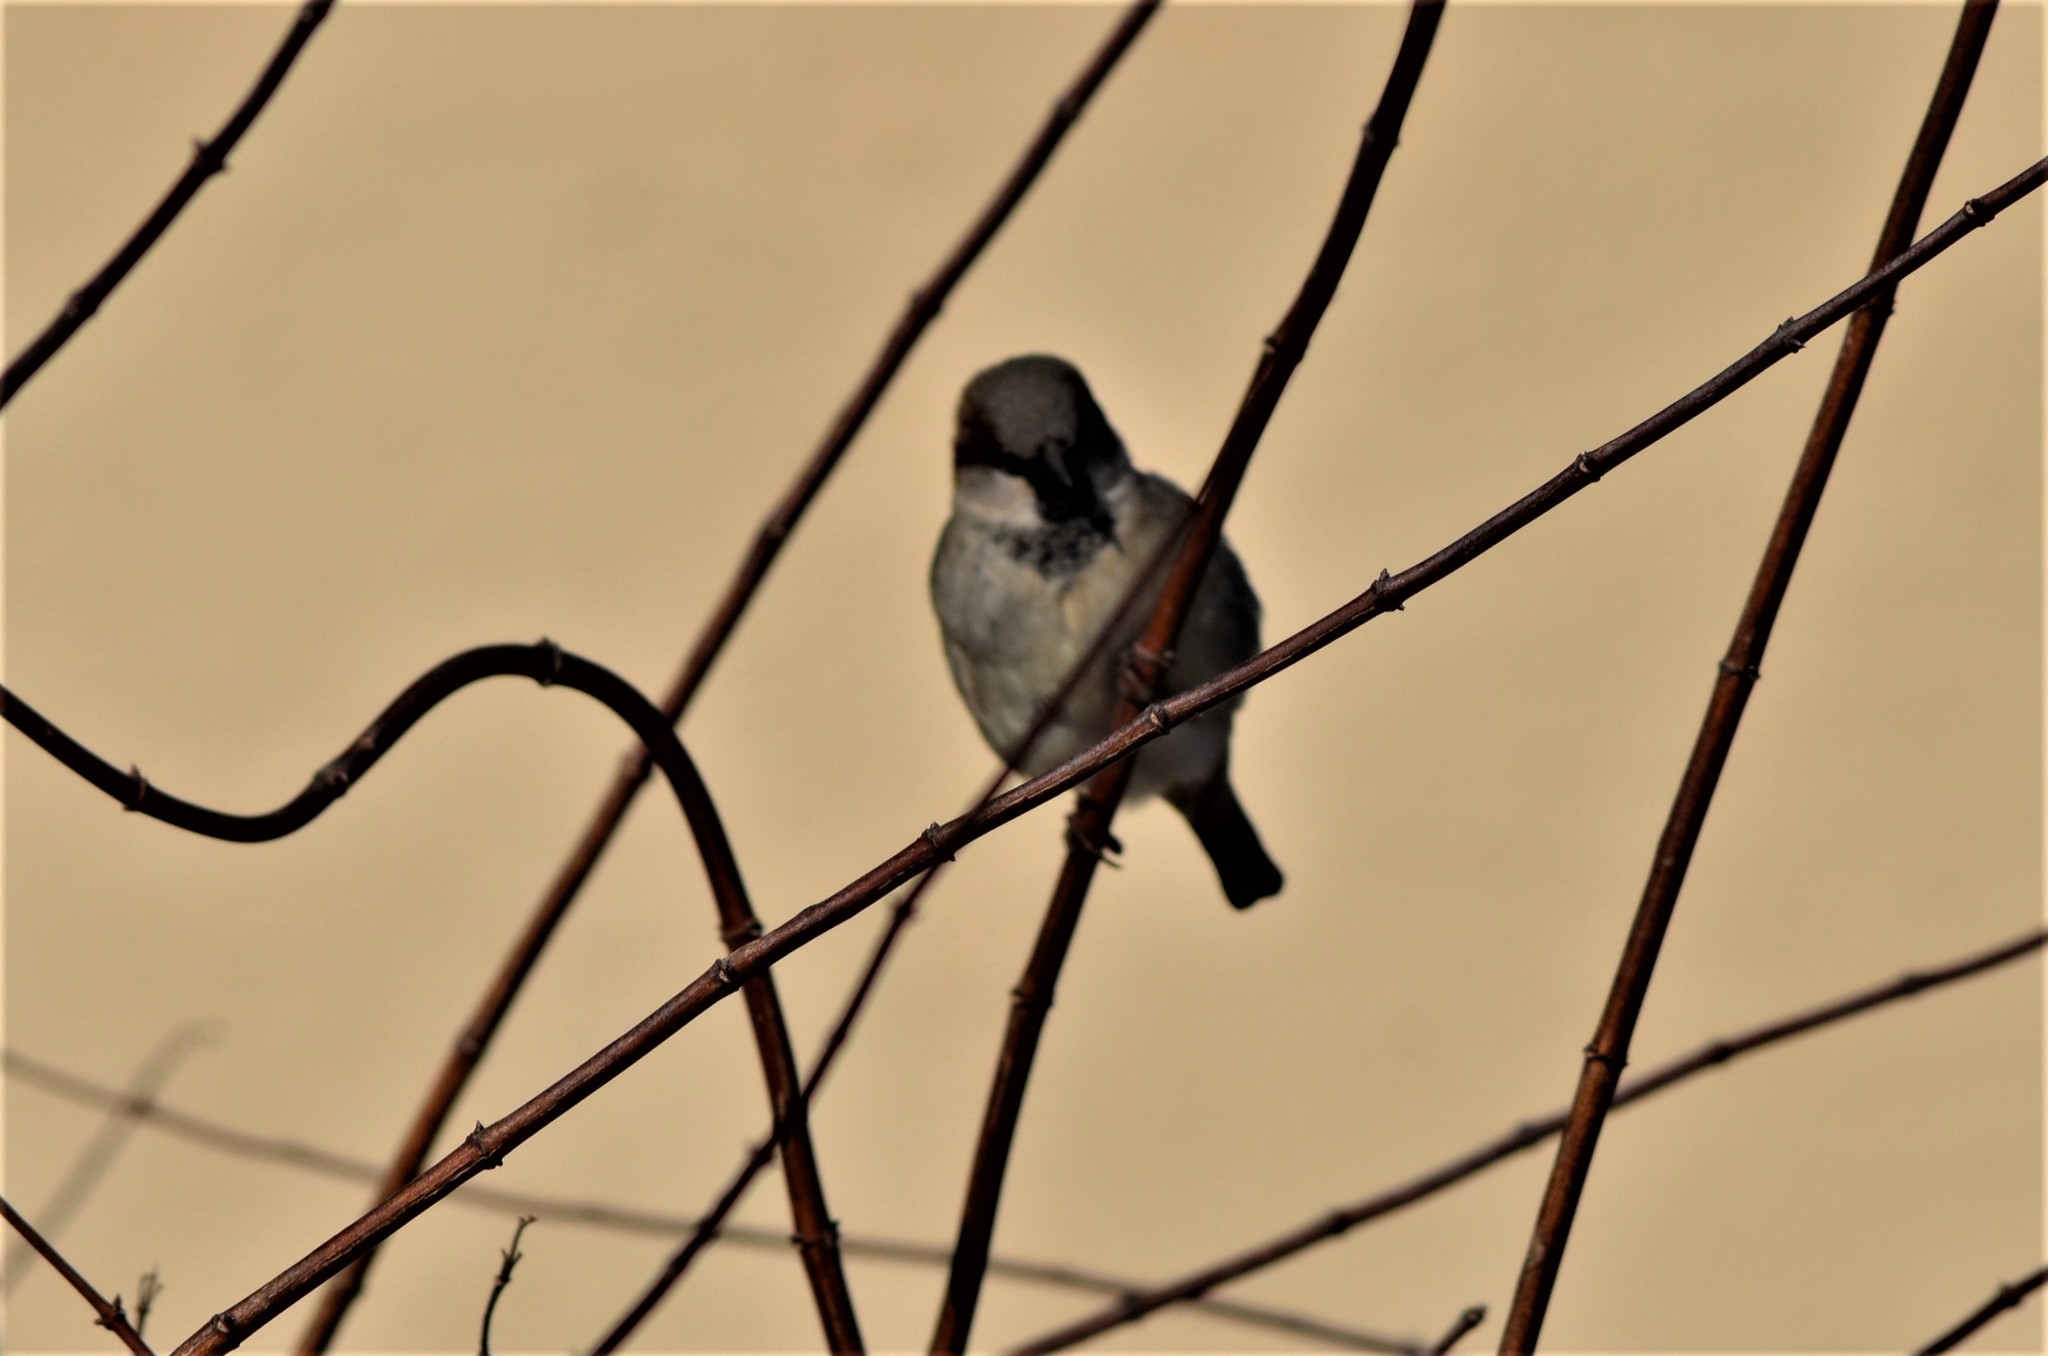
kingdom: Animalia
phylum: Chordata
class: Aves
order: Passeriformes
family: Passeridae
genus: Passer
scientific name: Passer domesticus
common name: House sparrow
